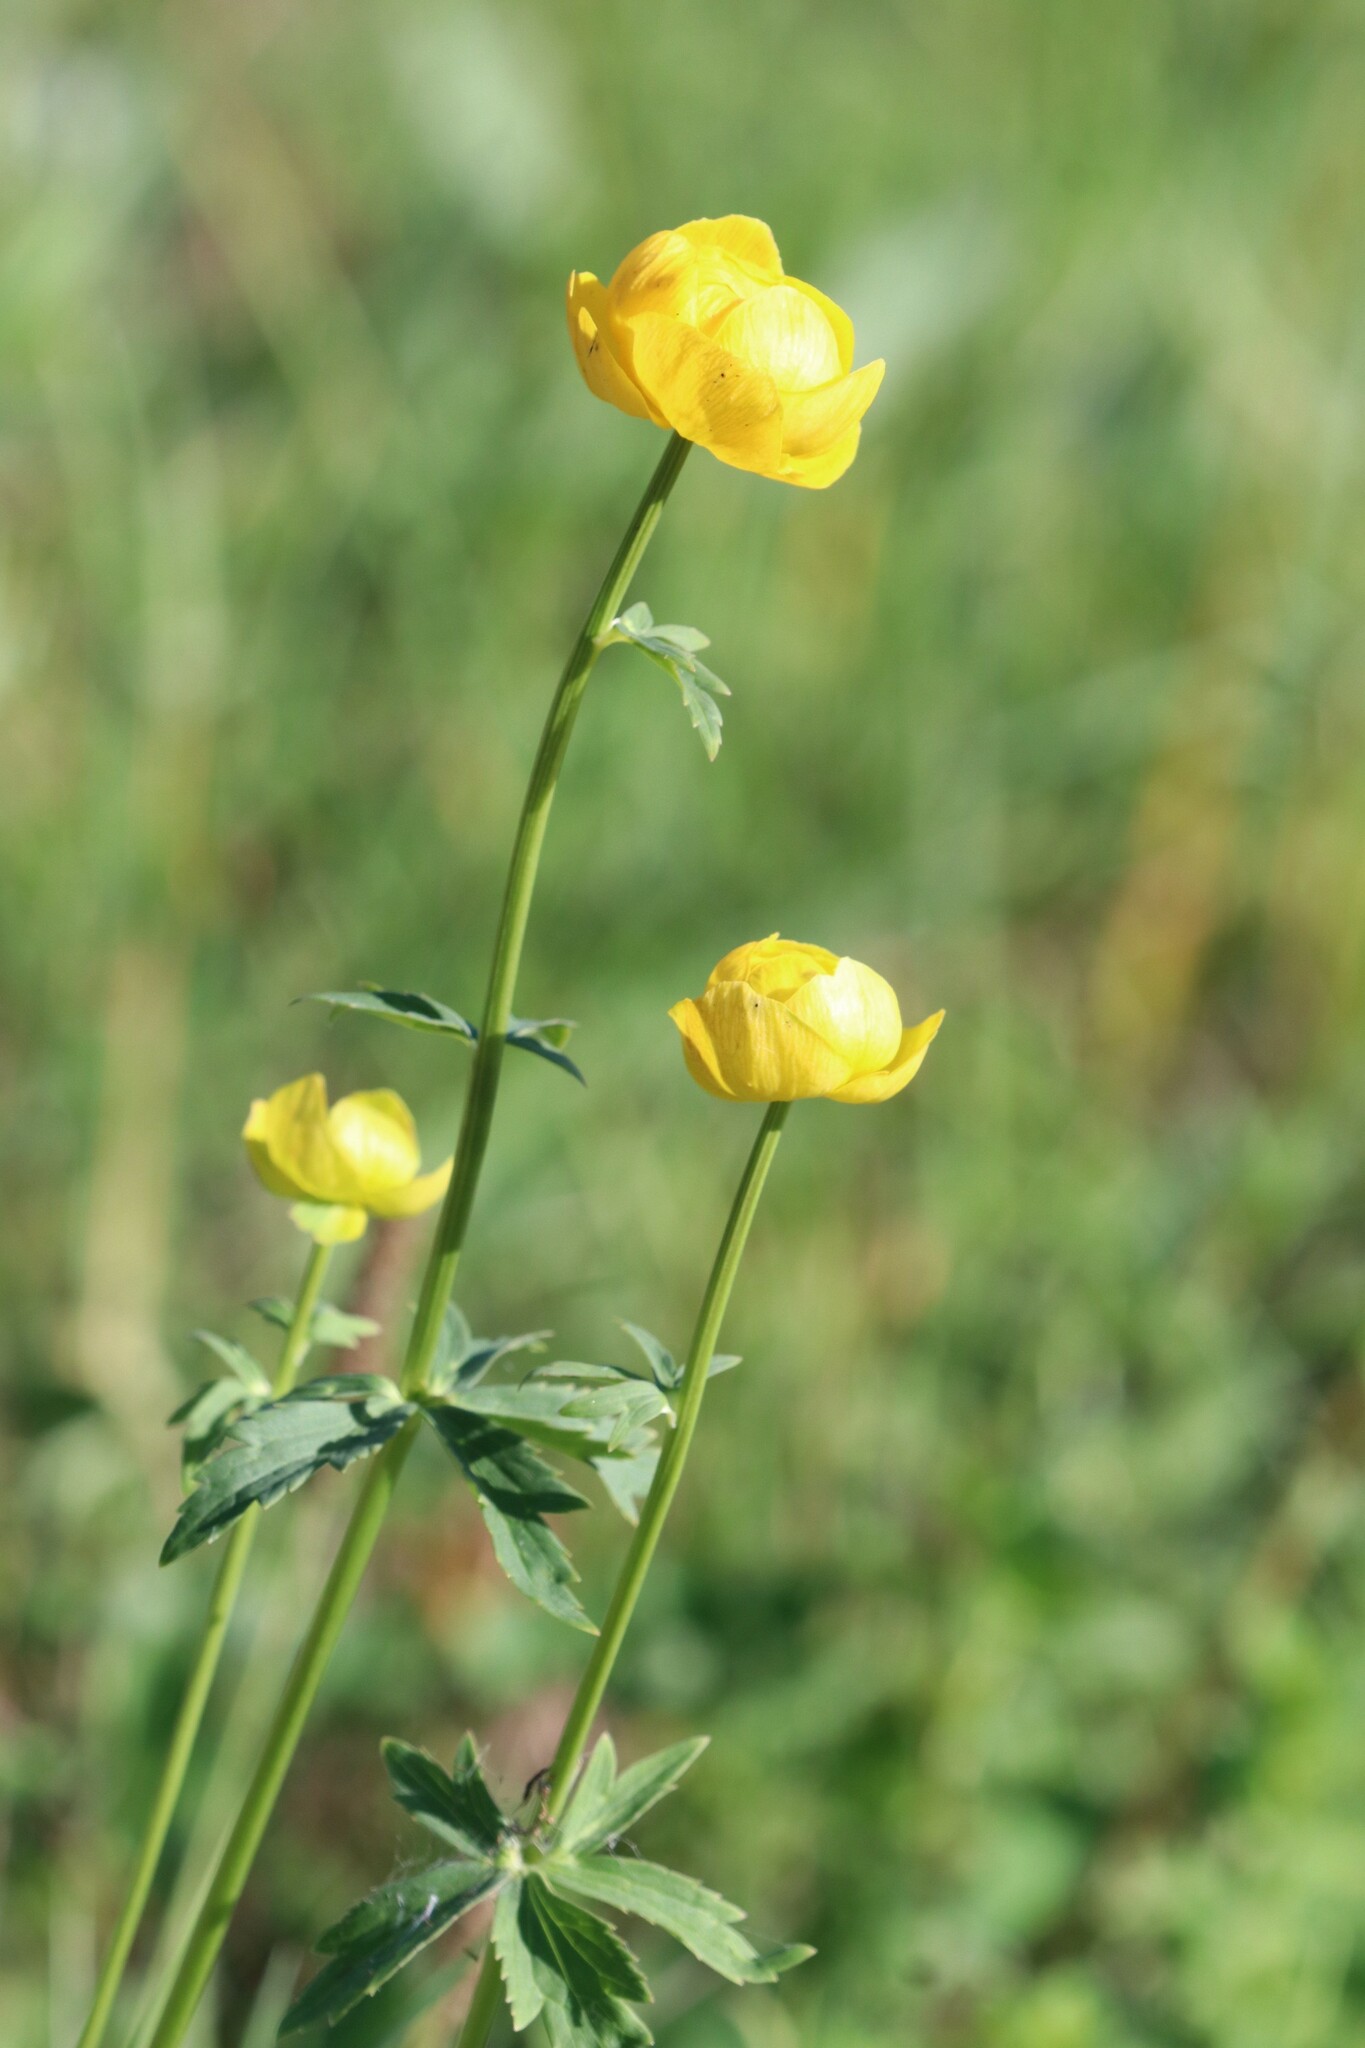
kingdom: Plantae
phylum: Tracheophyta
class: Magnoliopsida
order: Ranunculales
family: Ranunculaceae
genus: Trollius
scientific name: Trollius europaeus
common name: European globeflower
